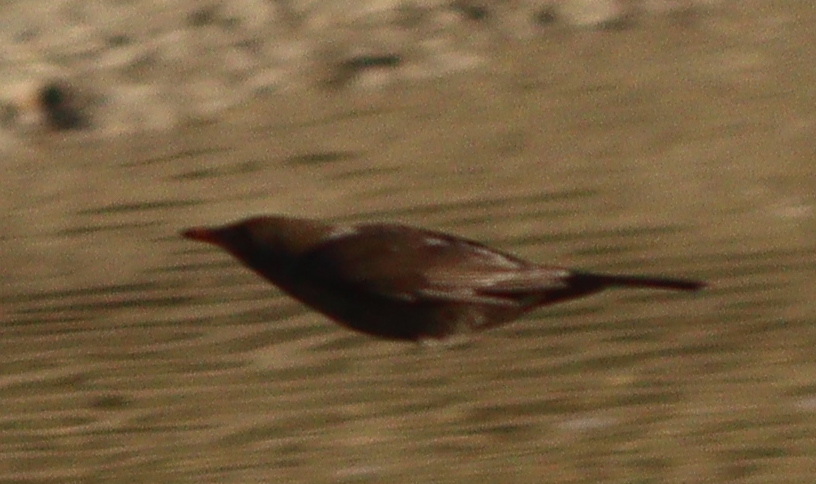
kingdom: Animalia
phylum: Chordata
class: Aves
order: Passeriformes
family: Turdidae
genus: Turdus
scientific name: Turdus merula
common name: Common blackbird
